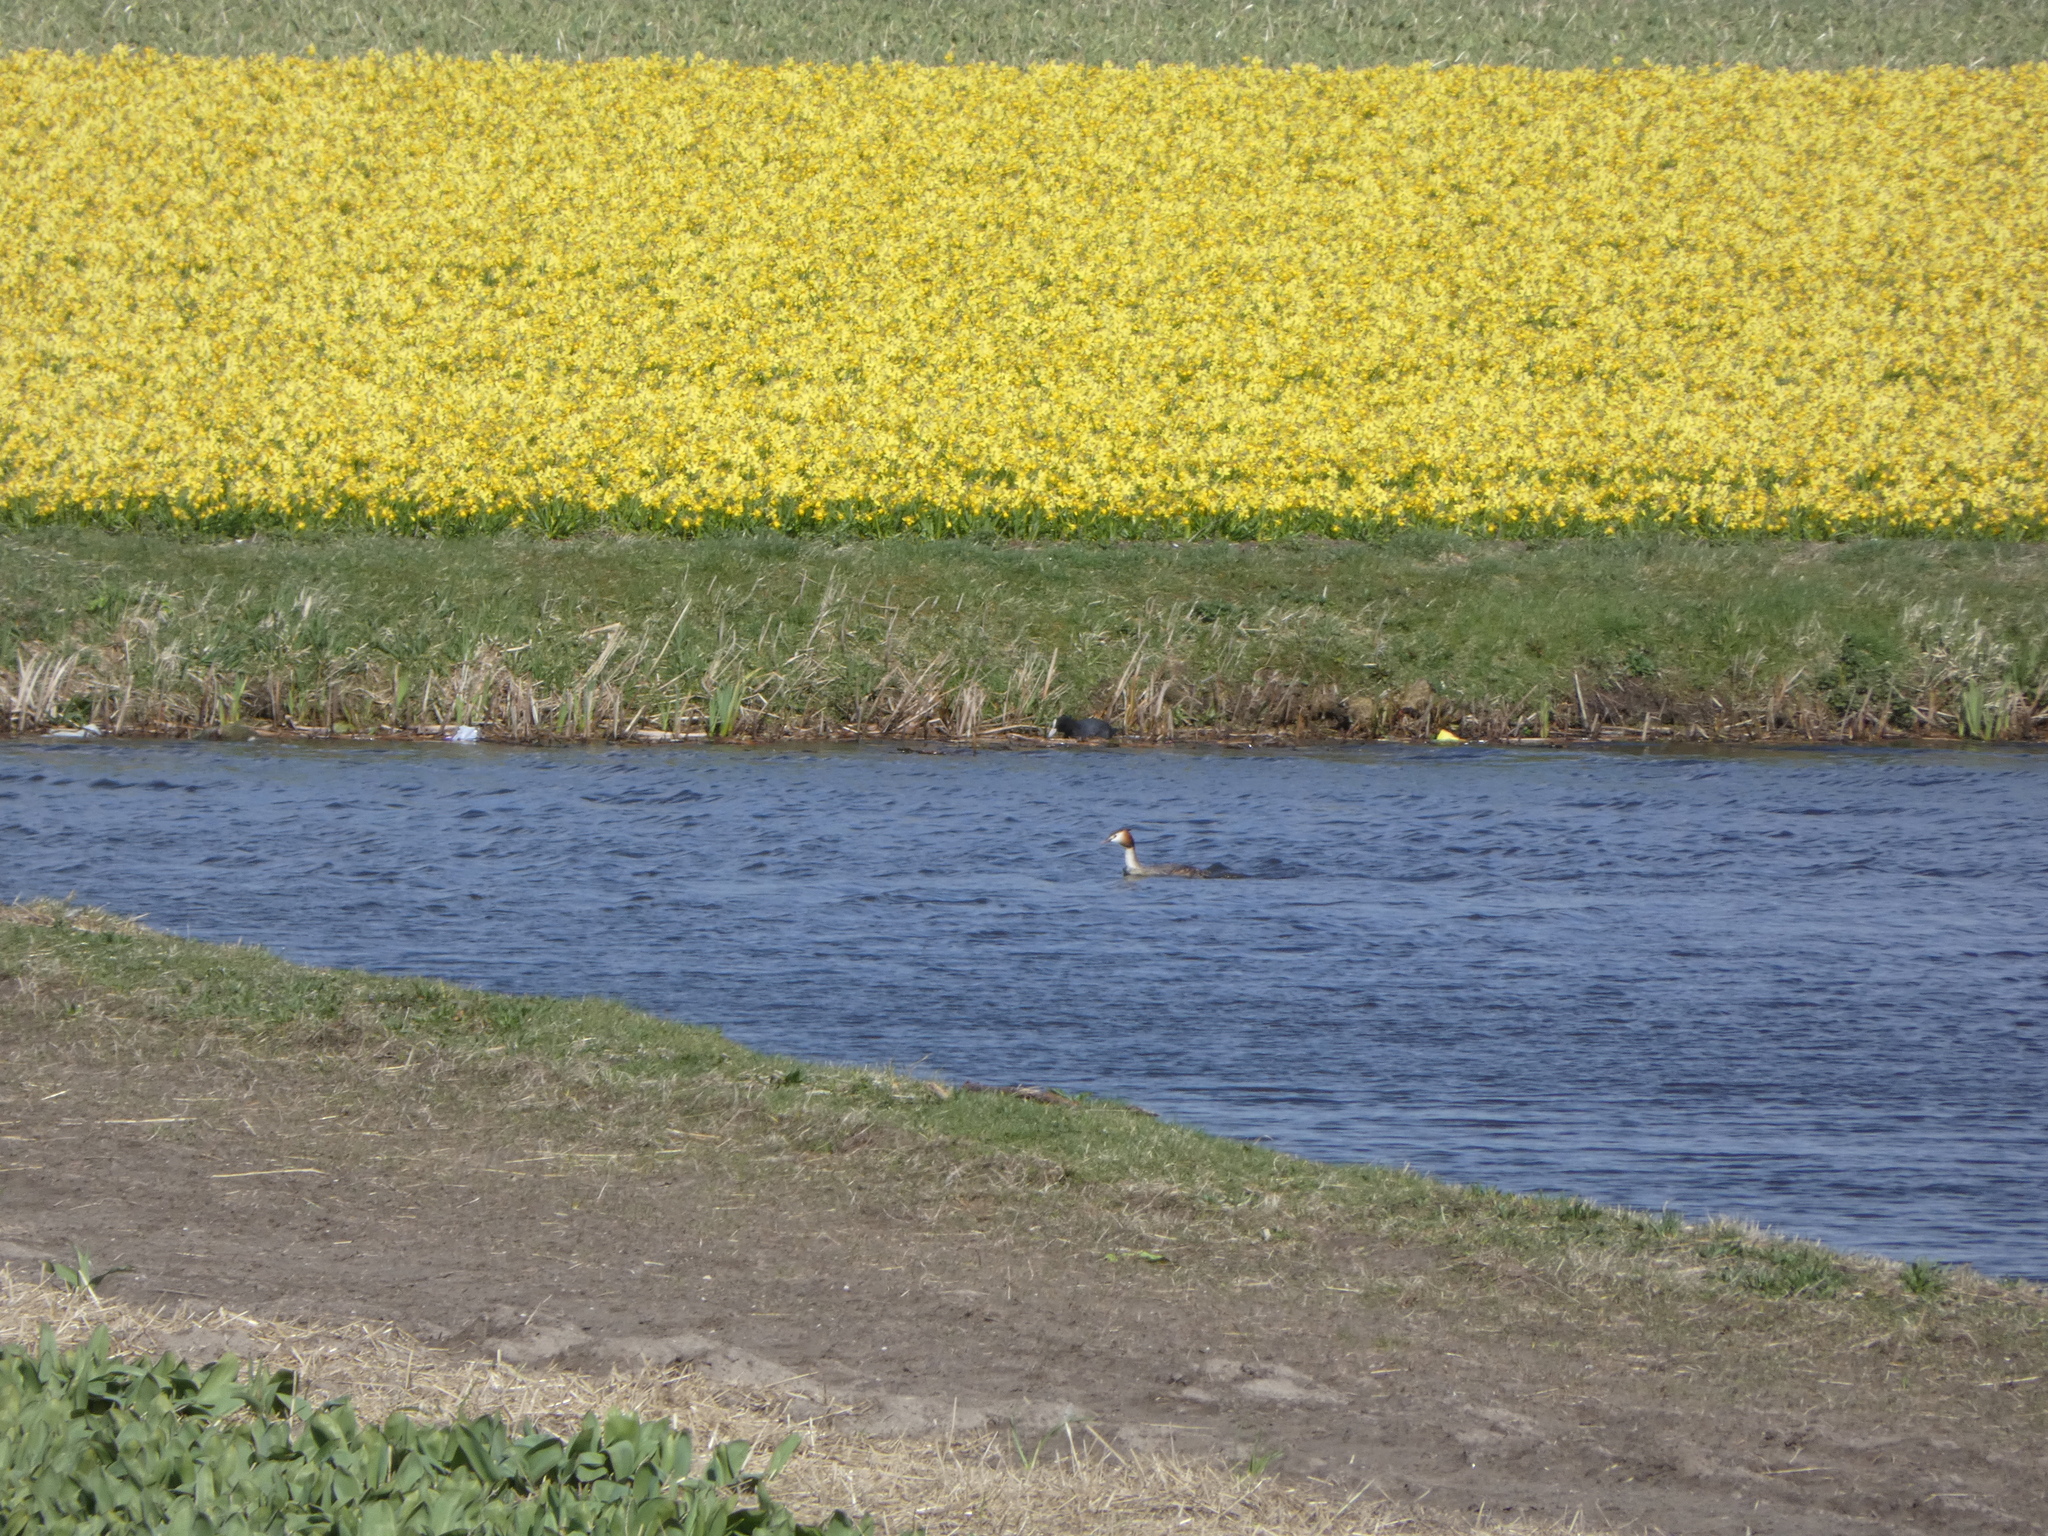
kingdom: Animalia
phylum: Chordata
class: Aves
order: Podicipediformes
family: Podicipedidae
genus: Podiceps
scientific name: Podiceps cristatus
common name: Great crested grebe
